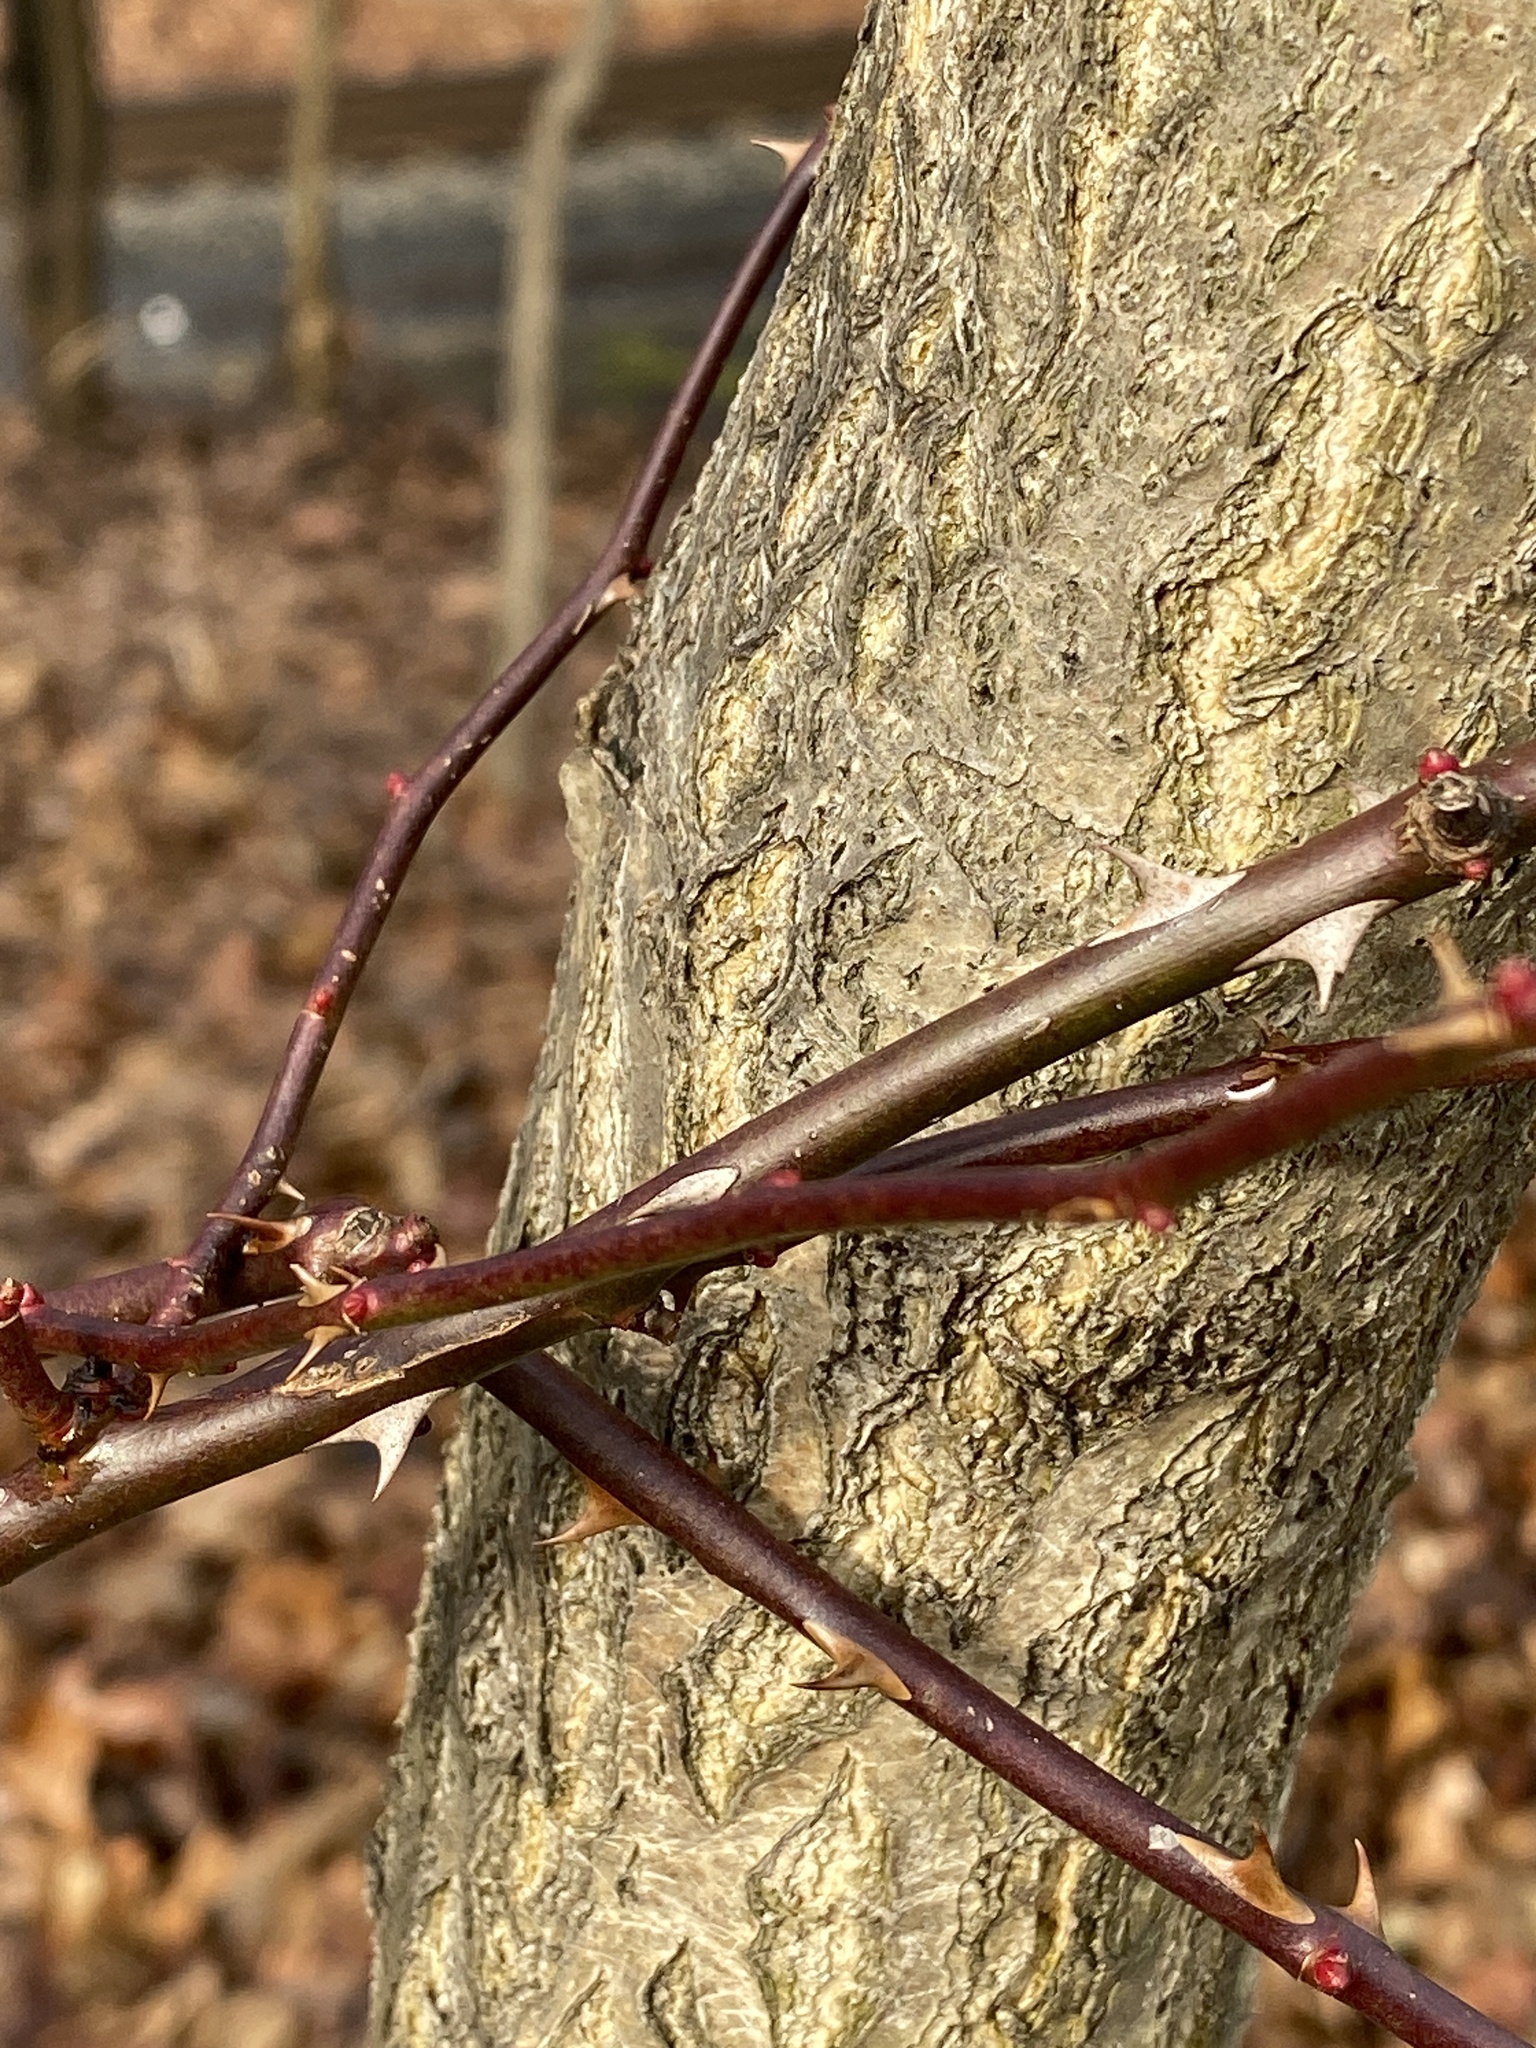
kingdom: Plantae
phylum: Tracheophyta
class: Magnoliopsida
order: Rosales
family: Rosaceae
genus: Rosa
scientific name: Rosa multiflora
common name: Multiflora rose
